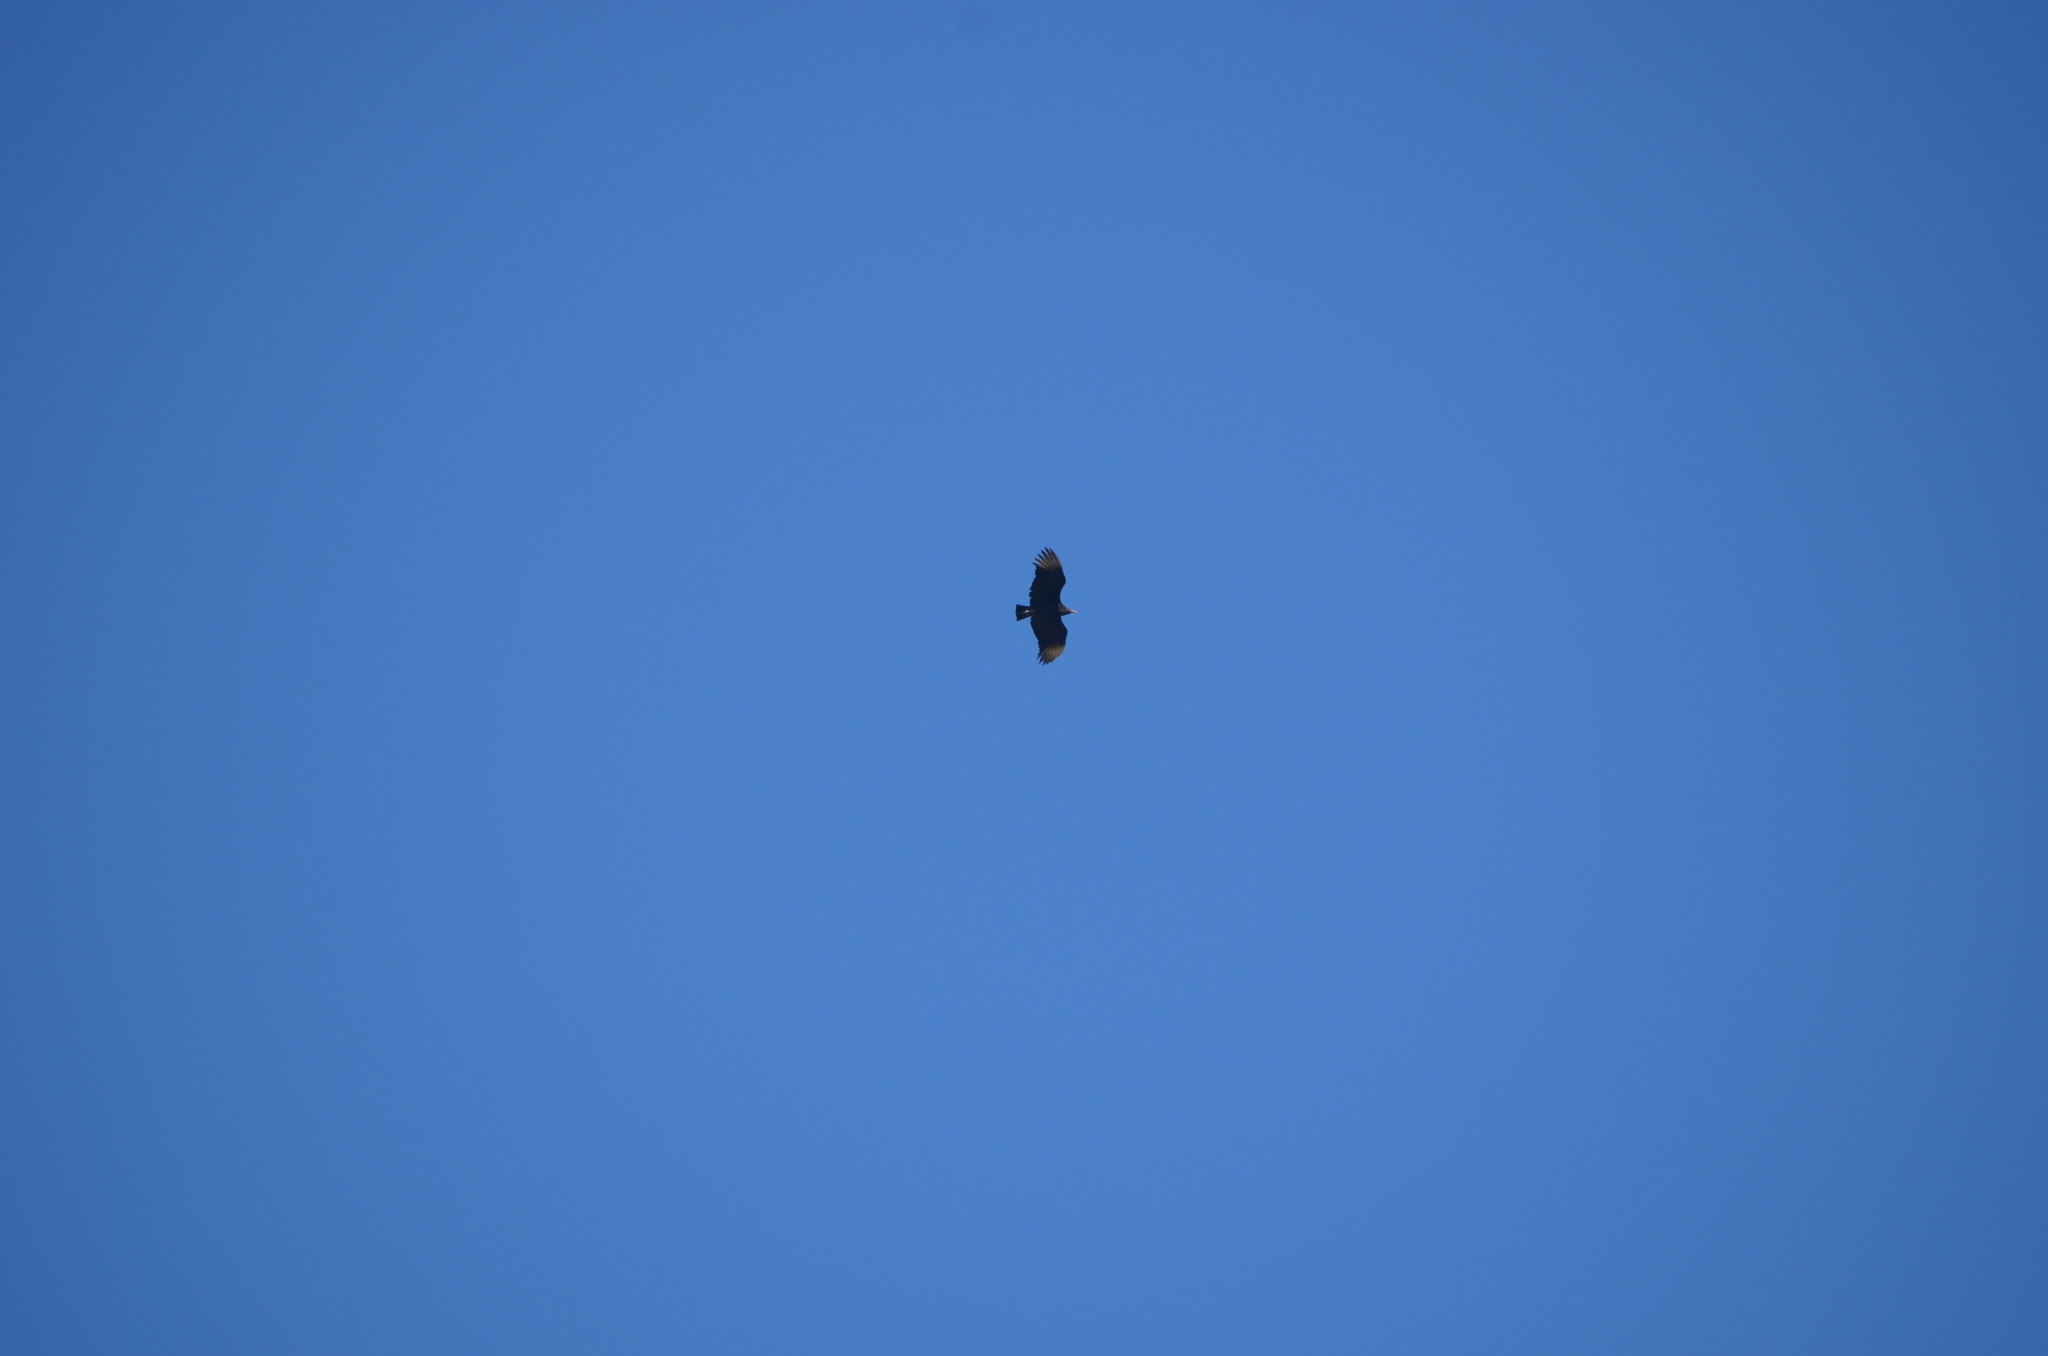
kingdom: Animalia
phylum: Chordata
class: Aves
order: Accipitriformes
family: Cathartidae
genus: Coragyps
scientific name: Coragyps atratus
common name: Black vulture
